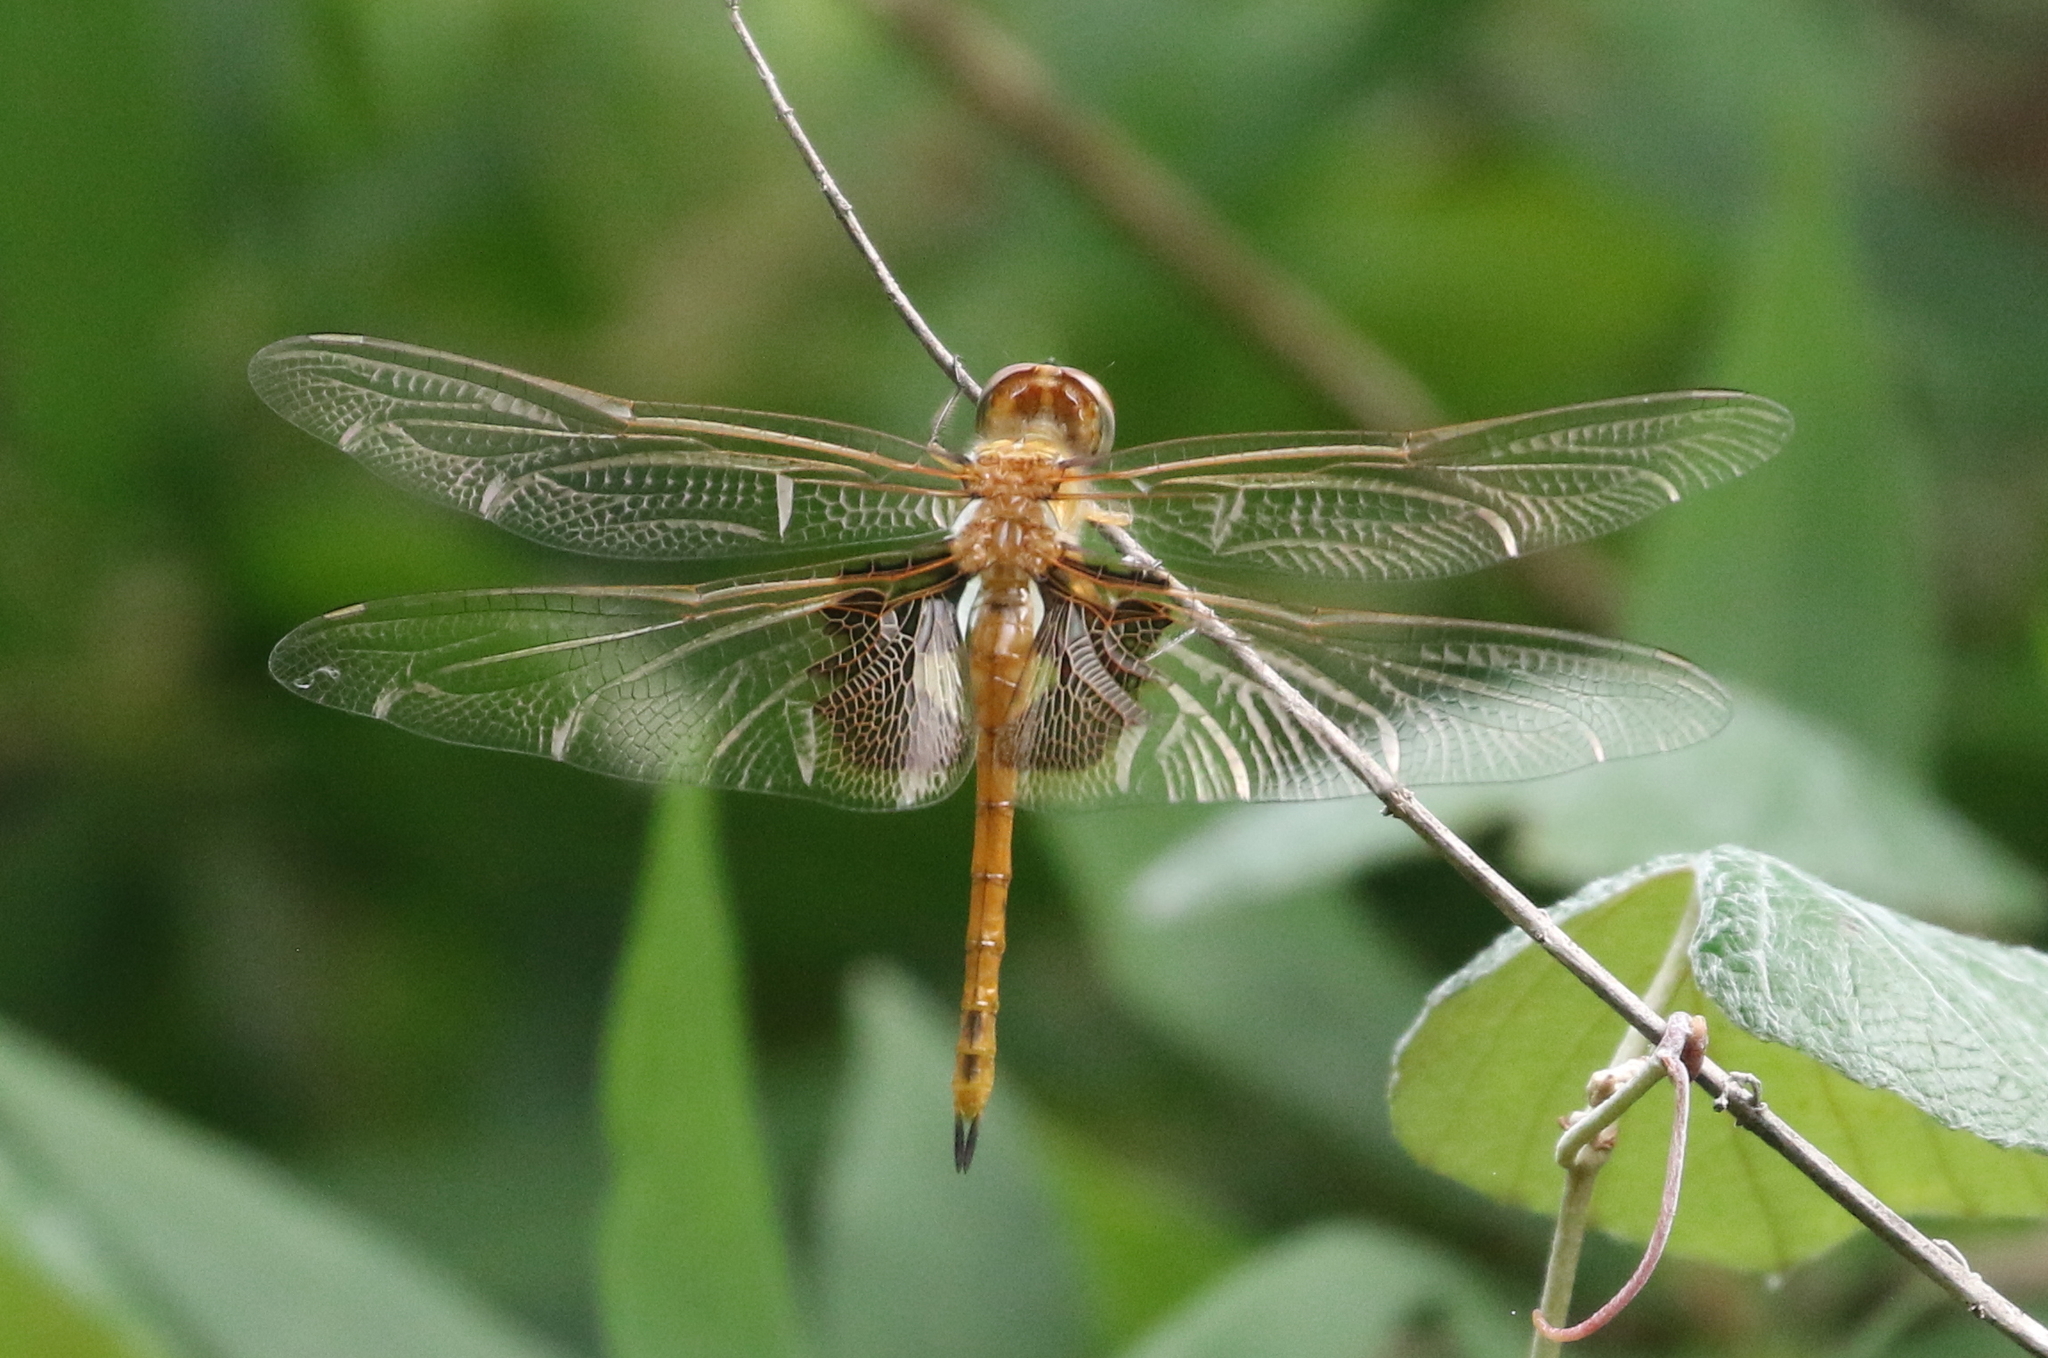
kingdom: Animalia
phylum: Arthropoda
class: Insecta
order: Odonata
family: Libellulidae
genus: Tramea
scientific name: Tramea onusta
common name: Red saddlebags
